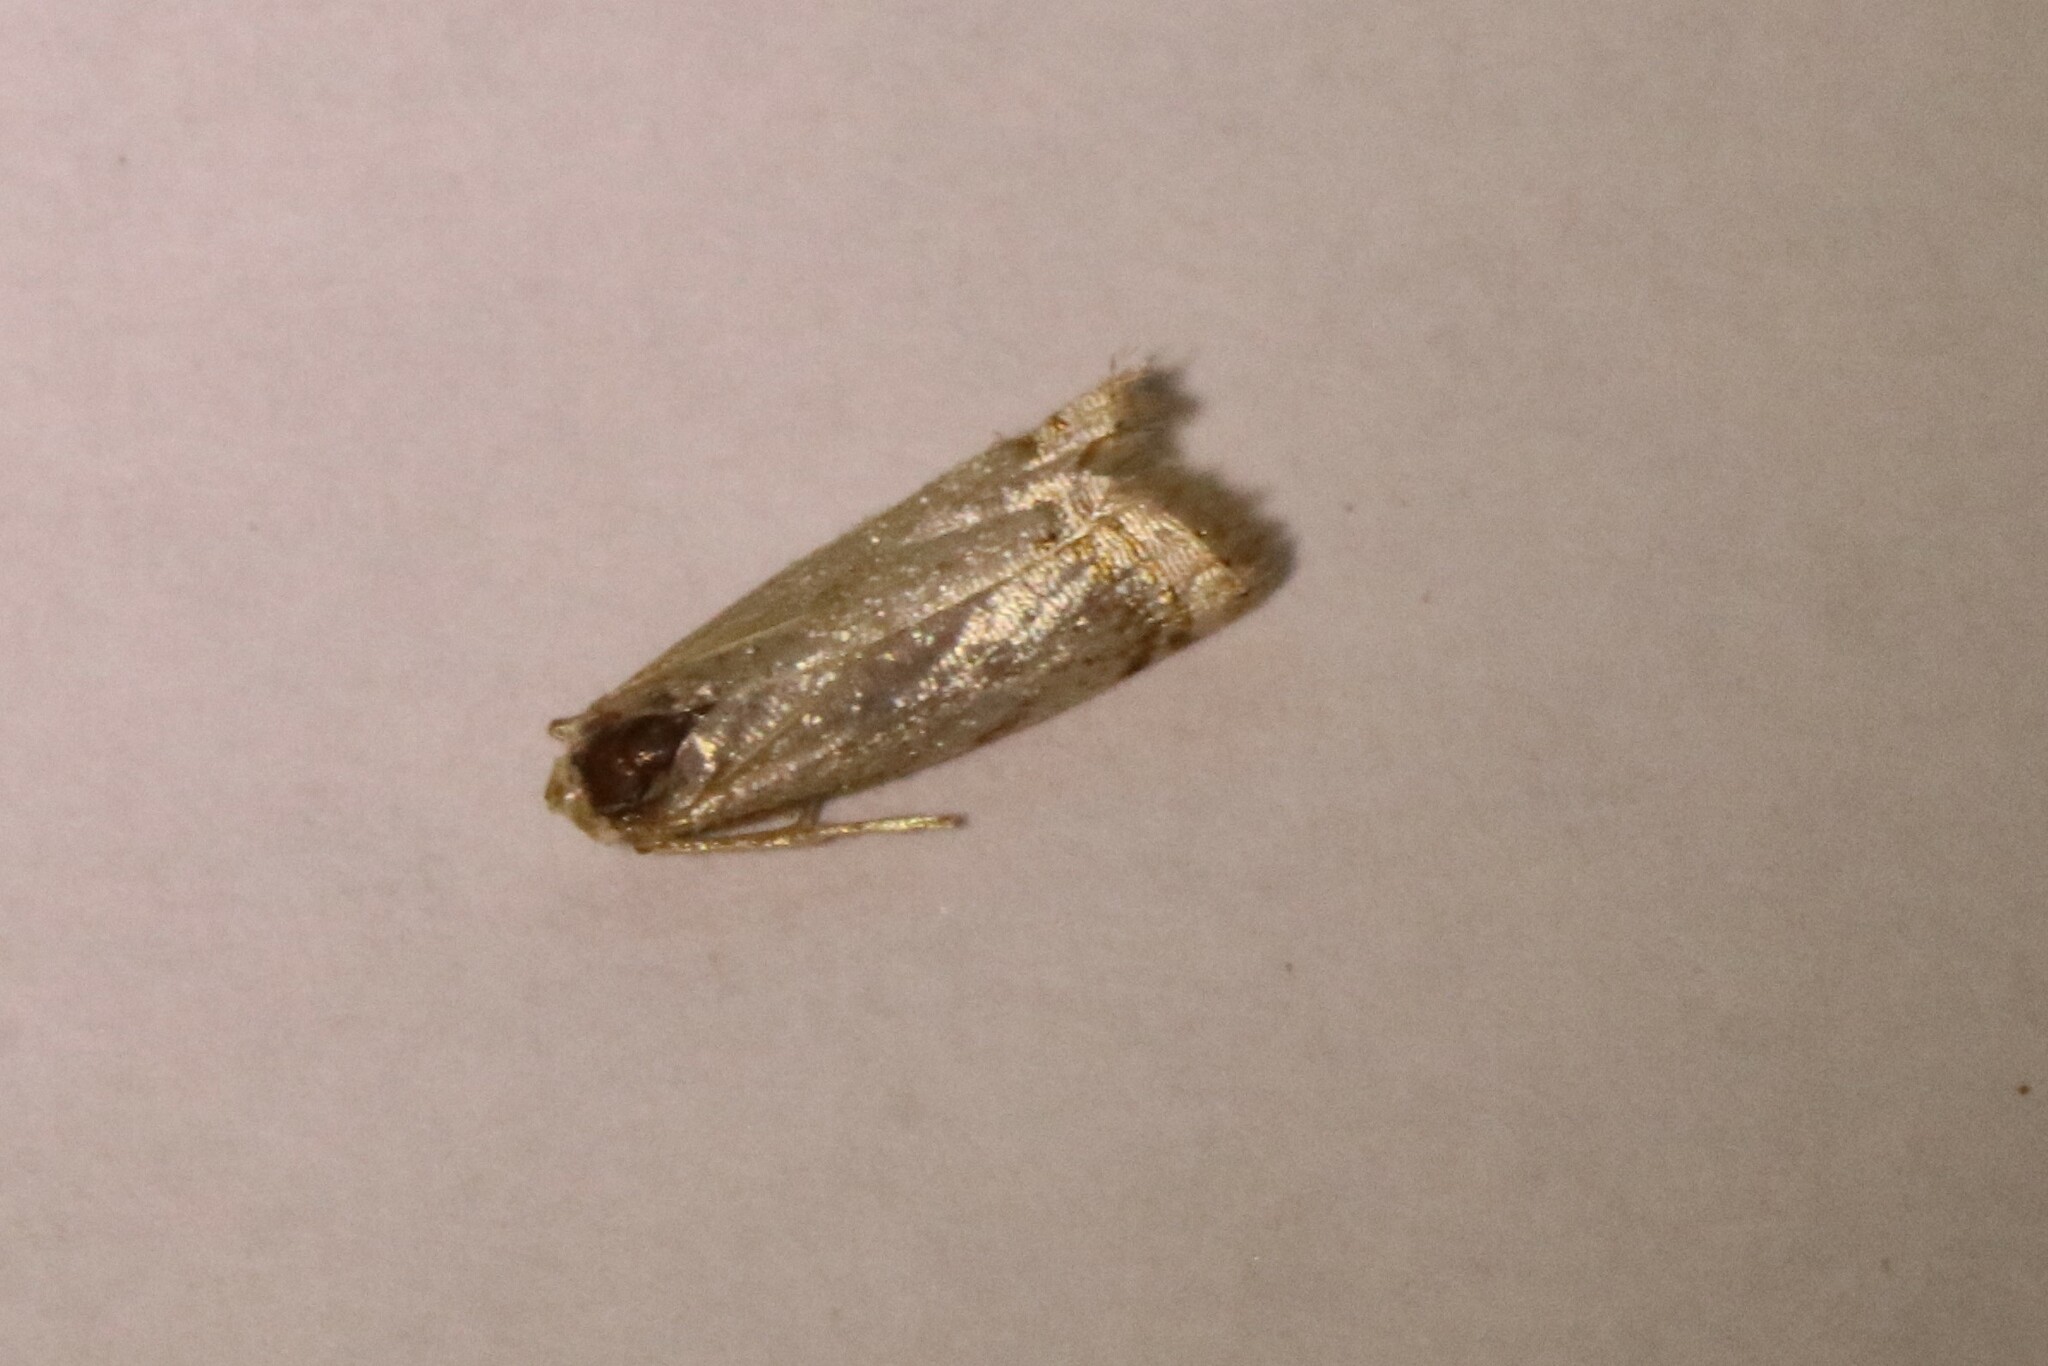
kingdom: Animalia
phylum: Arthropoda
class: Insecta
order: Lepidoptera
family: Crambidae
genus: Microcrambus
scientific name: Microcrambus elegans
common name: Elegant grass-veneer
